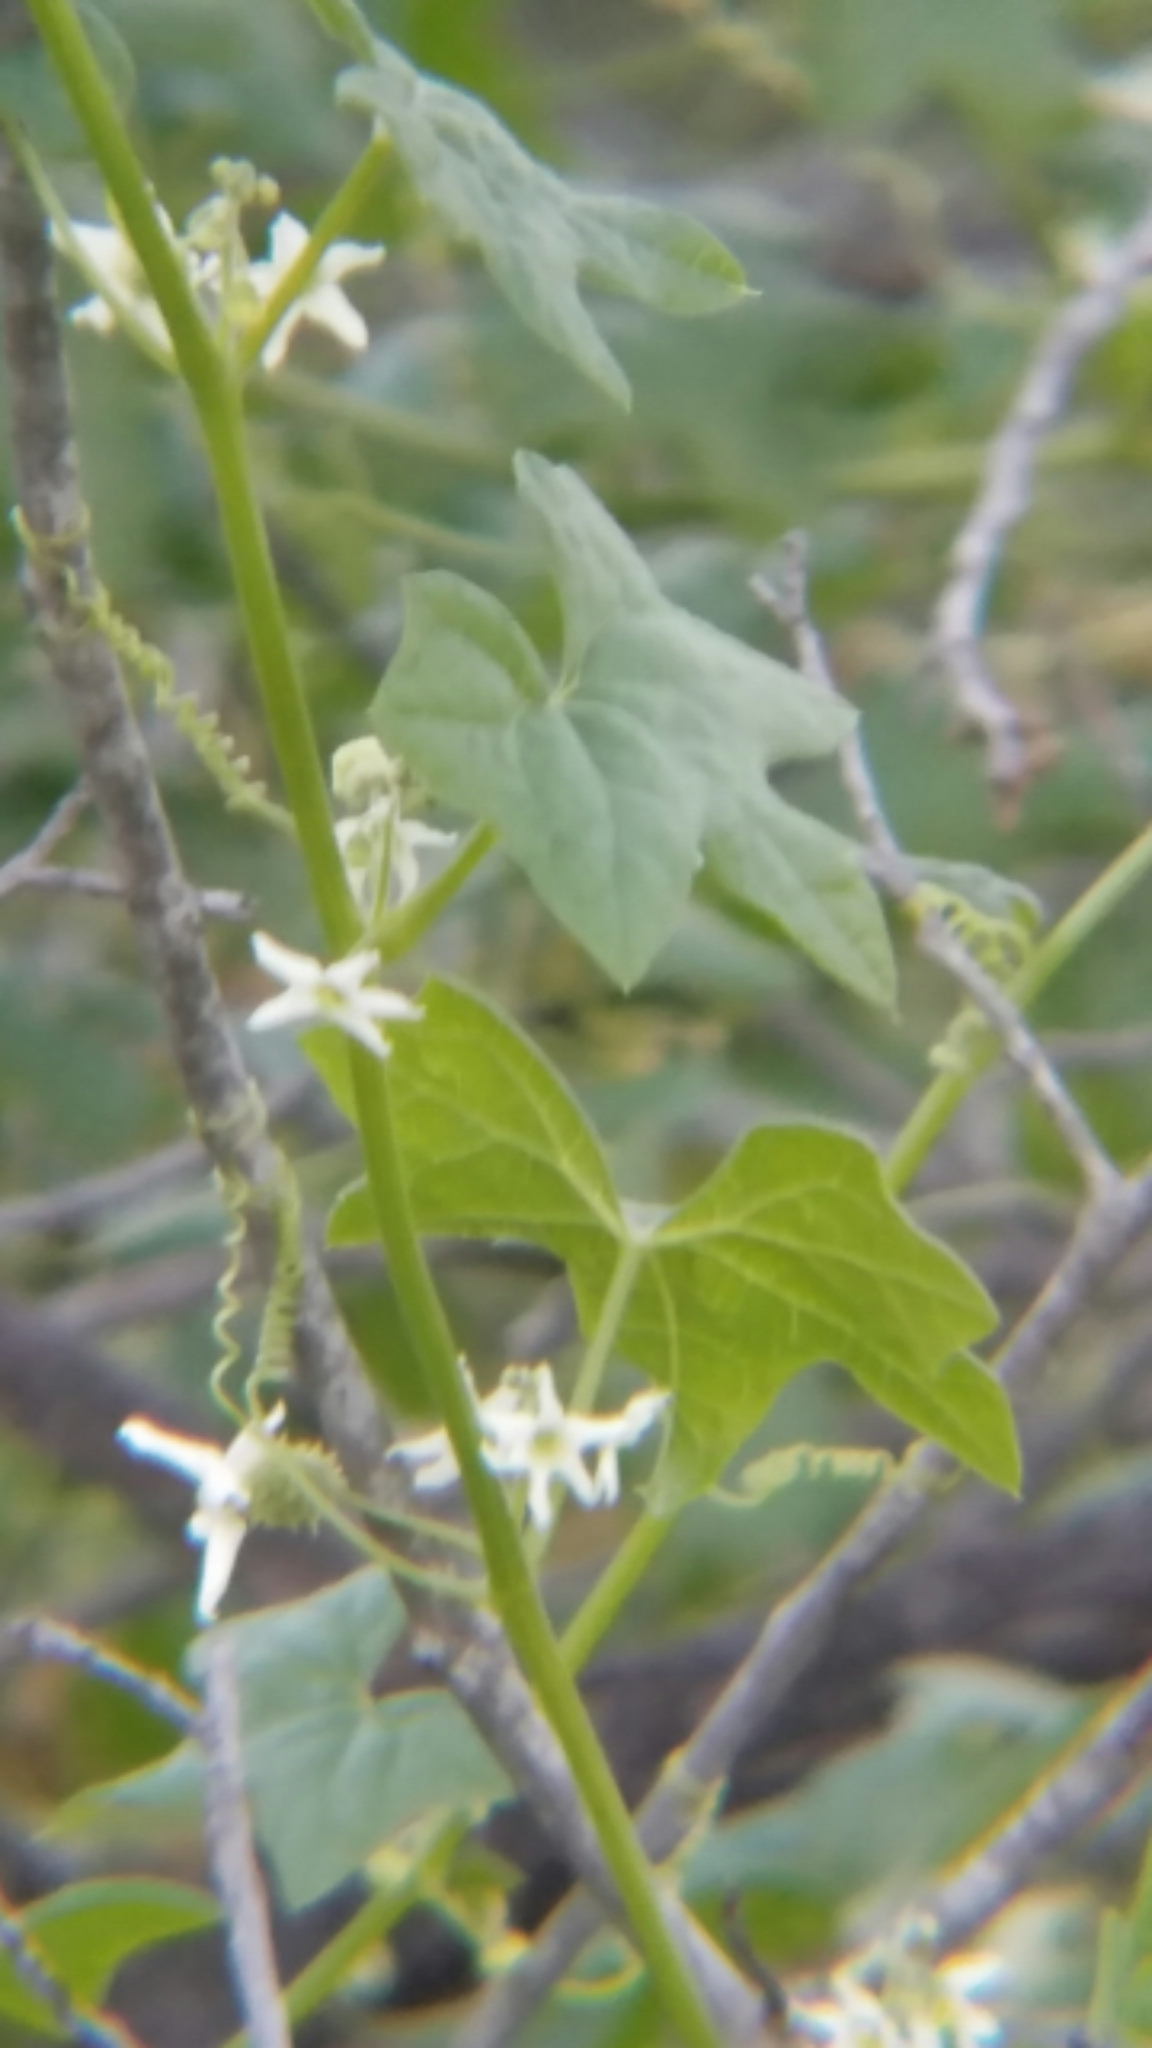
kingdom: Plantae
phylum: Tracheophyta
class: Magnoliopsida
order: Cucurbitales
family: Cucurbitaceae
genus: Marah
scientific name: Marah macrocarpa
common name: Cucamonga manroot
